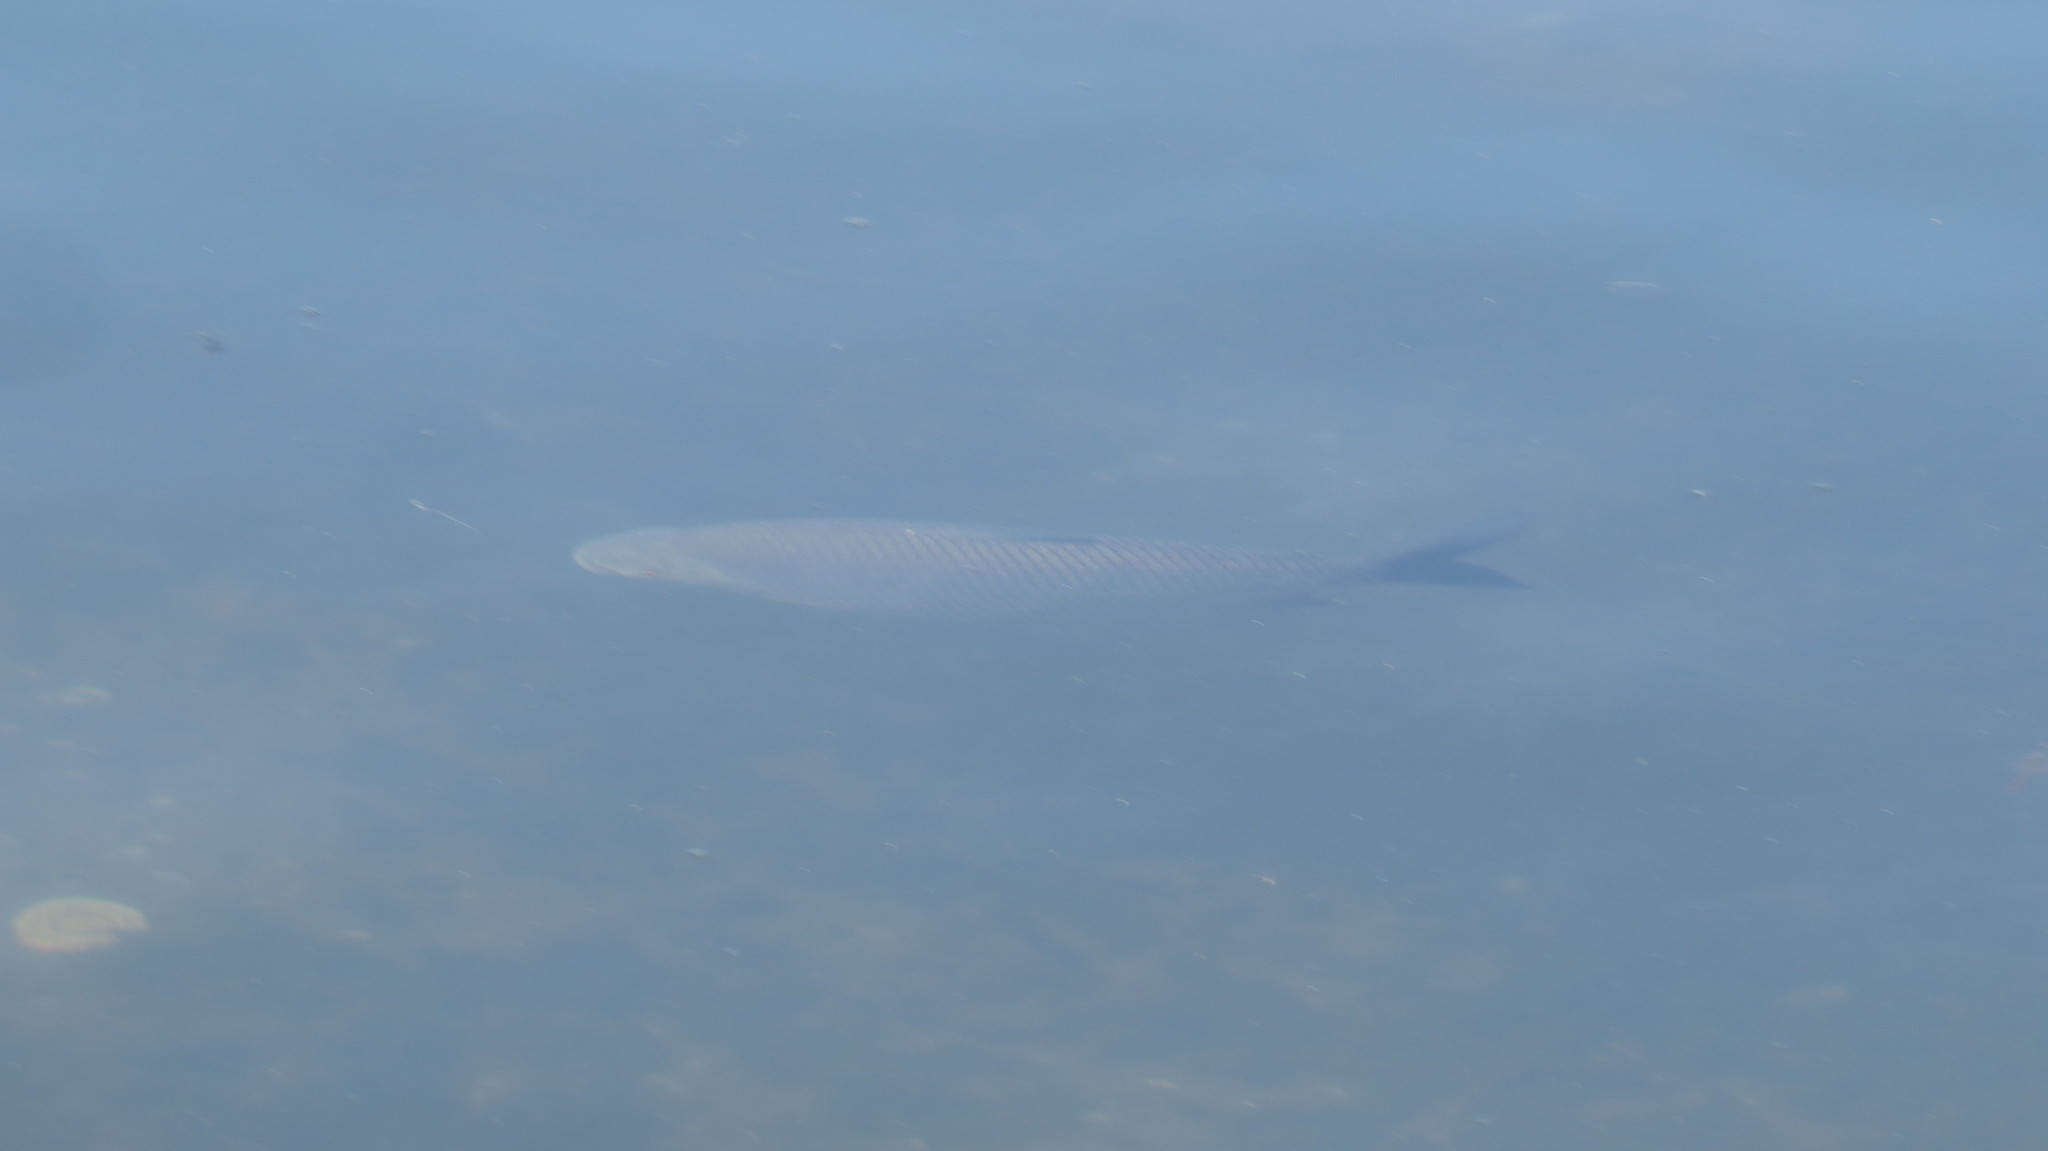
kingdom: Animalia
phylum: Chordata
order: Characiformes
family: Prochilodontidae
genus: Prochilodus
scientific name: Prochilodus lineatus
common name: Curimbata
